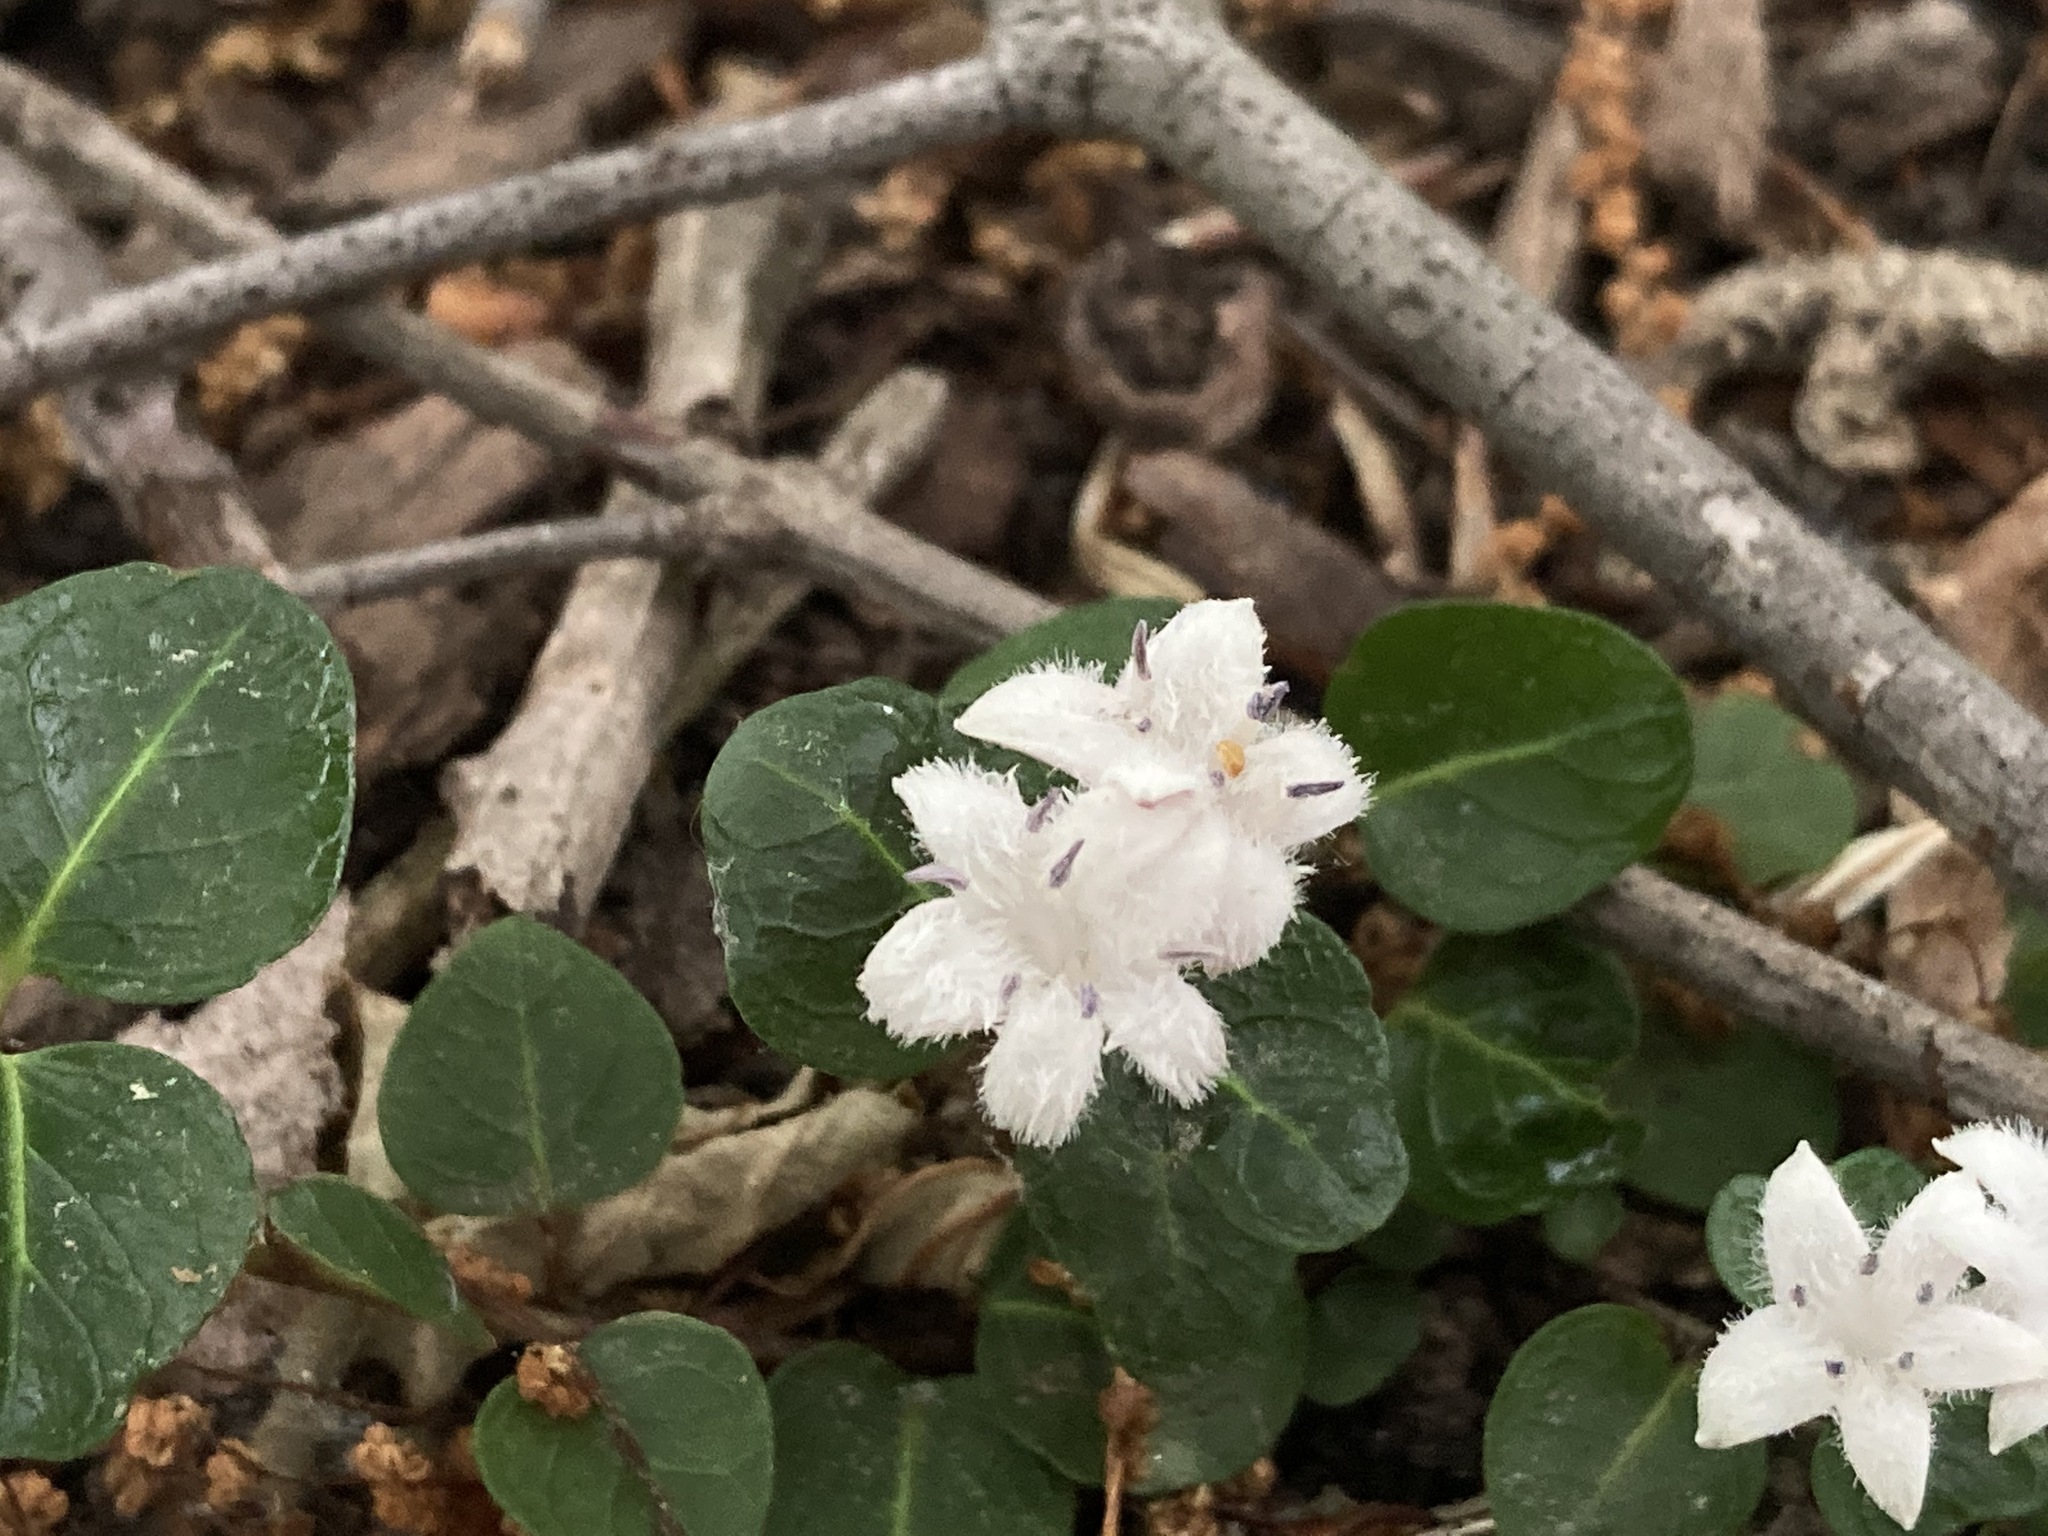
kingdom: Plantae
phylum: Tracheophyta
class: Magnoliopsida
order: Gentianales
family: Rubiaceae
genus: Mitchella
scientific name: Mitchella repens
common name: Partridge-berry
